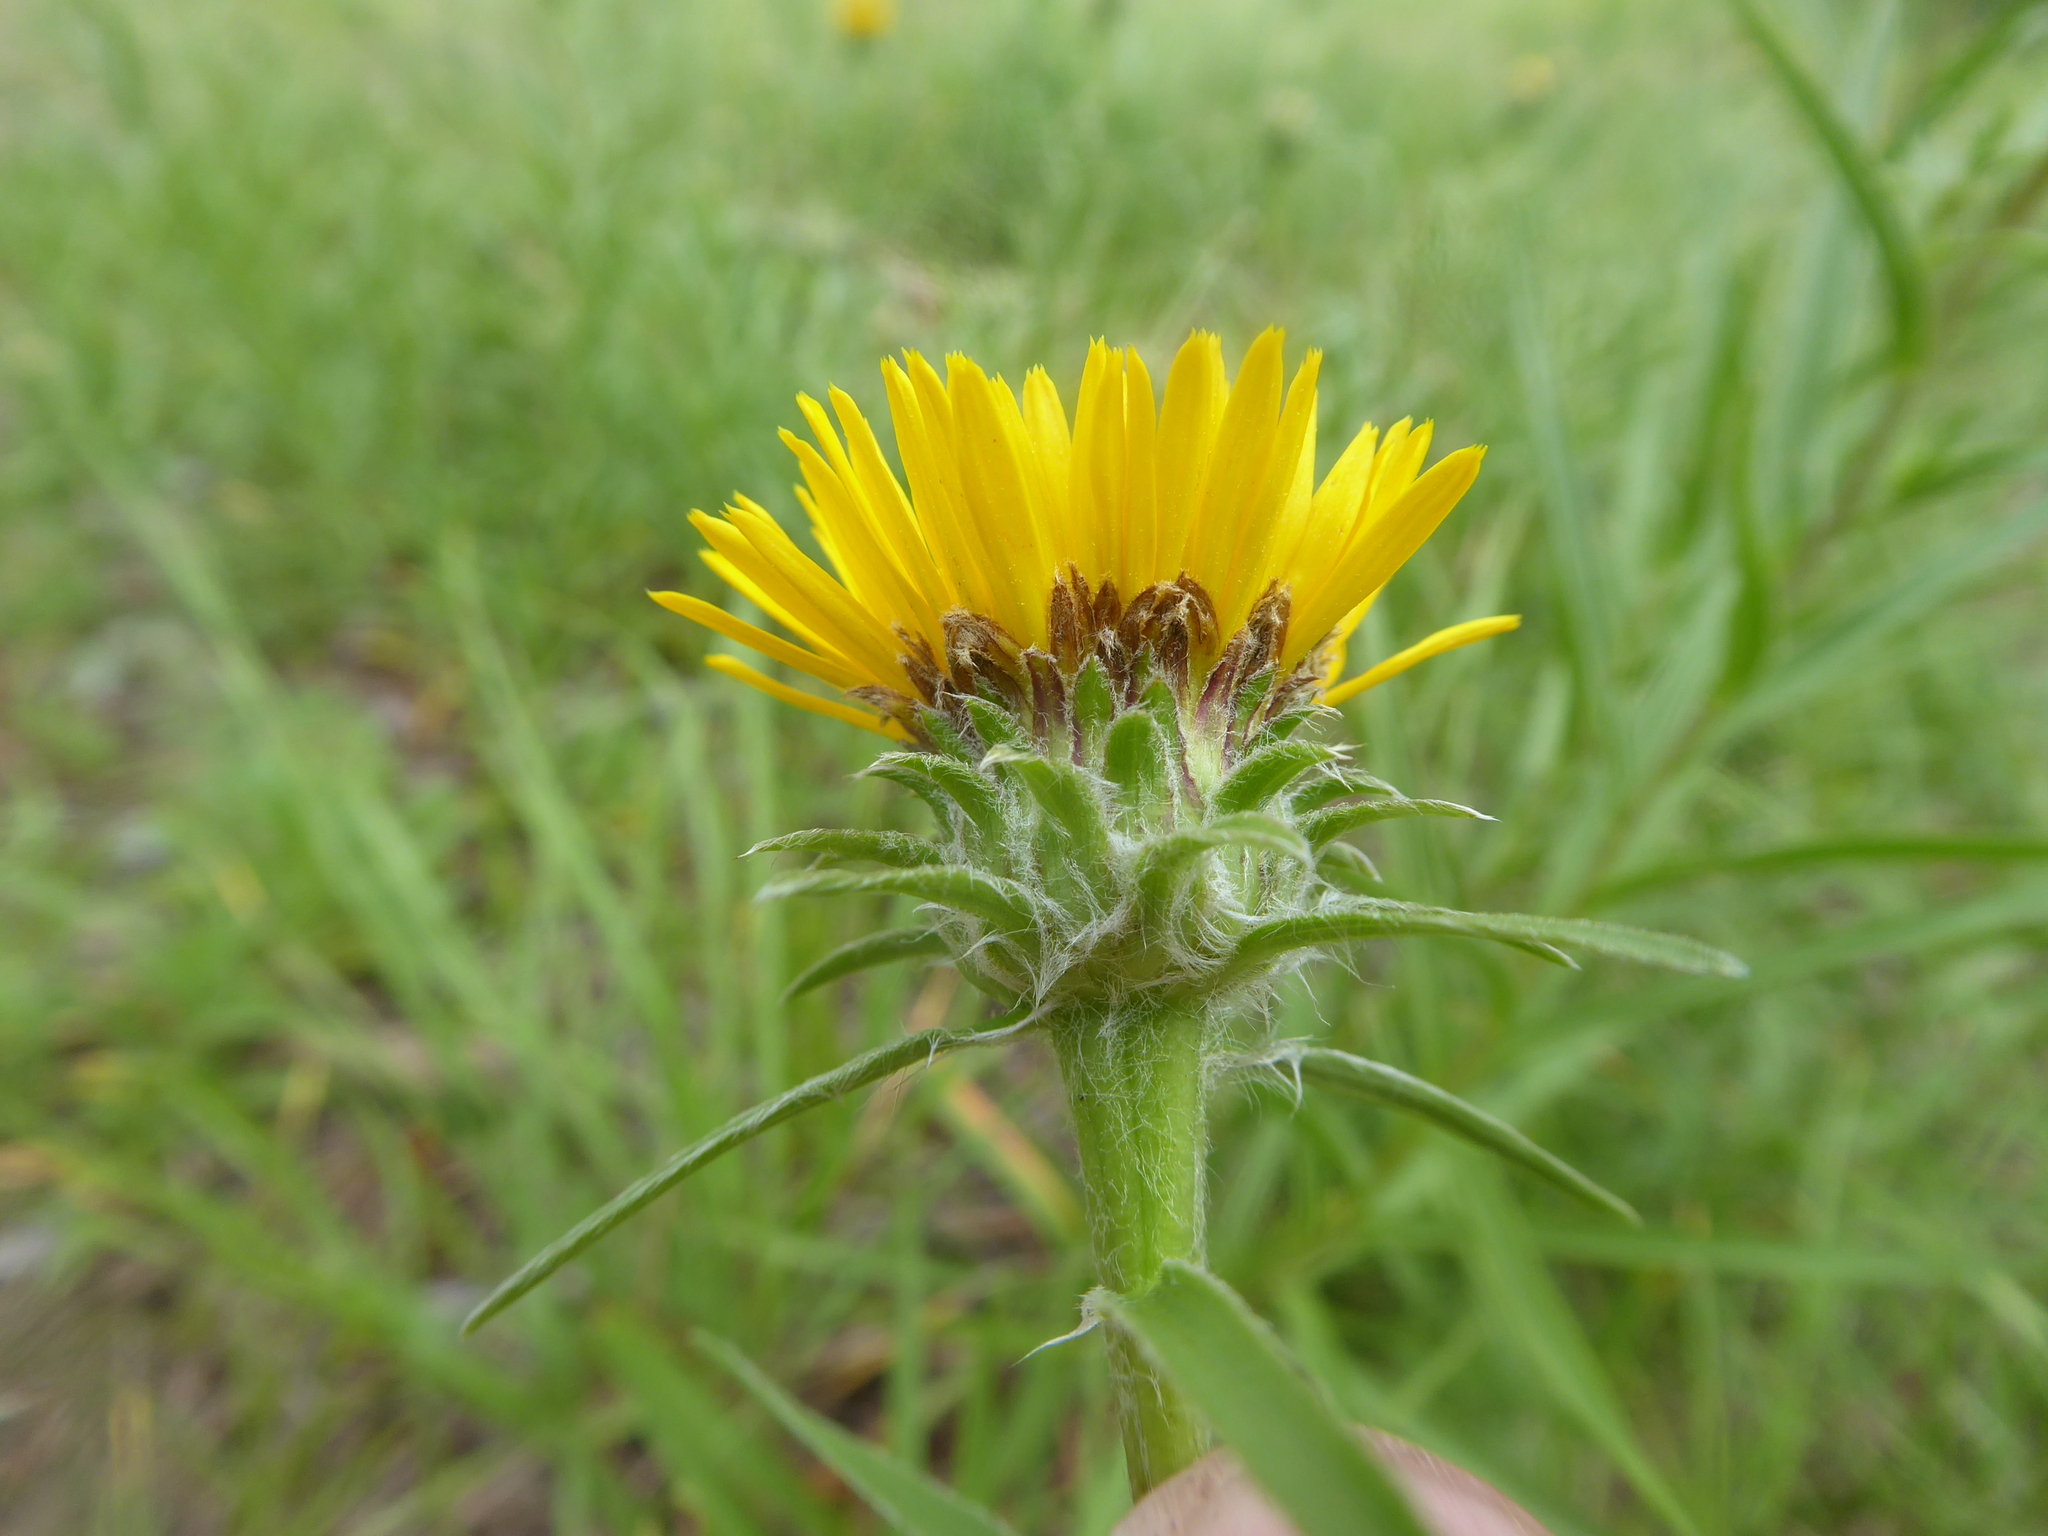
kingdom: Plantae
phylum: Tracheophyta
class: Magnoliopsida
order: Asterales
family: Asteraceae
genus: Pentanema
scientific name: Pentanema ensifolium
